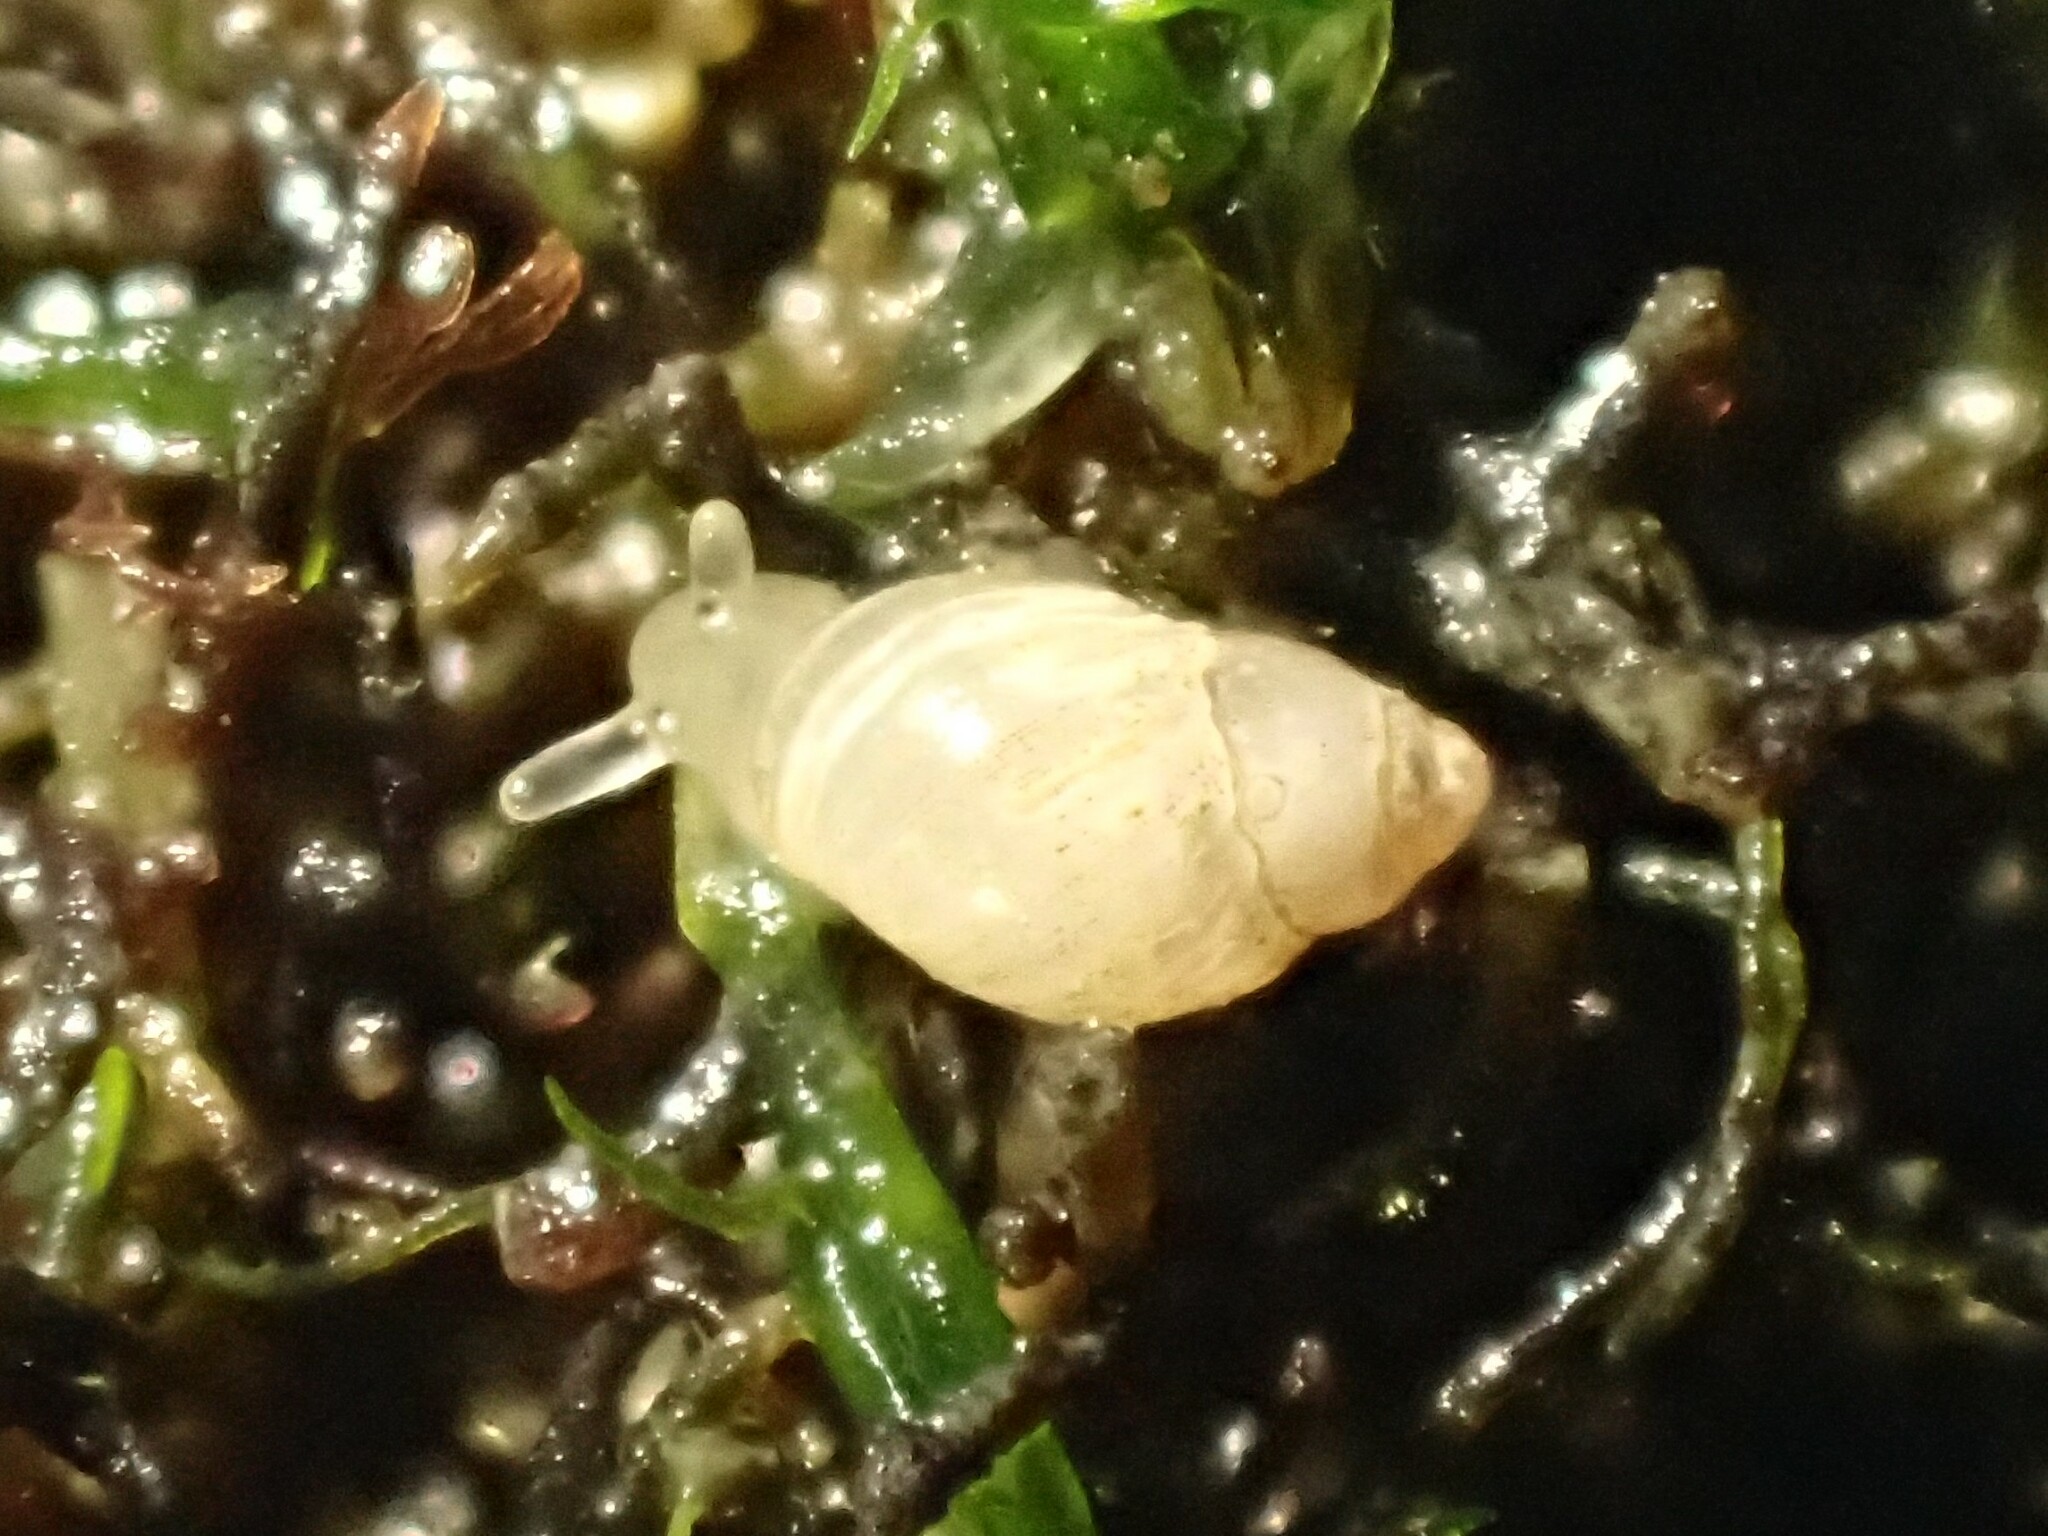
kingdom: Animalia
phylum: Mollusca
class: Gastropoda
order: Ellobiida
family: Ellobiidae
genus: Leuconopsis
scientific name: Leuconopsis obsoleta
